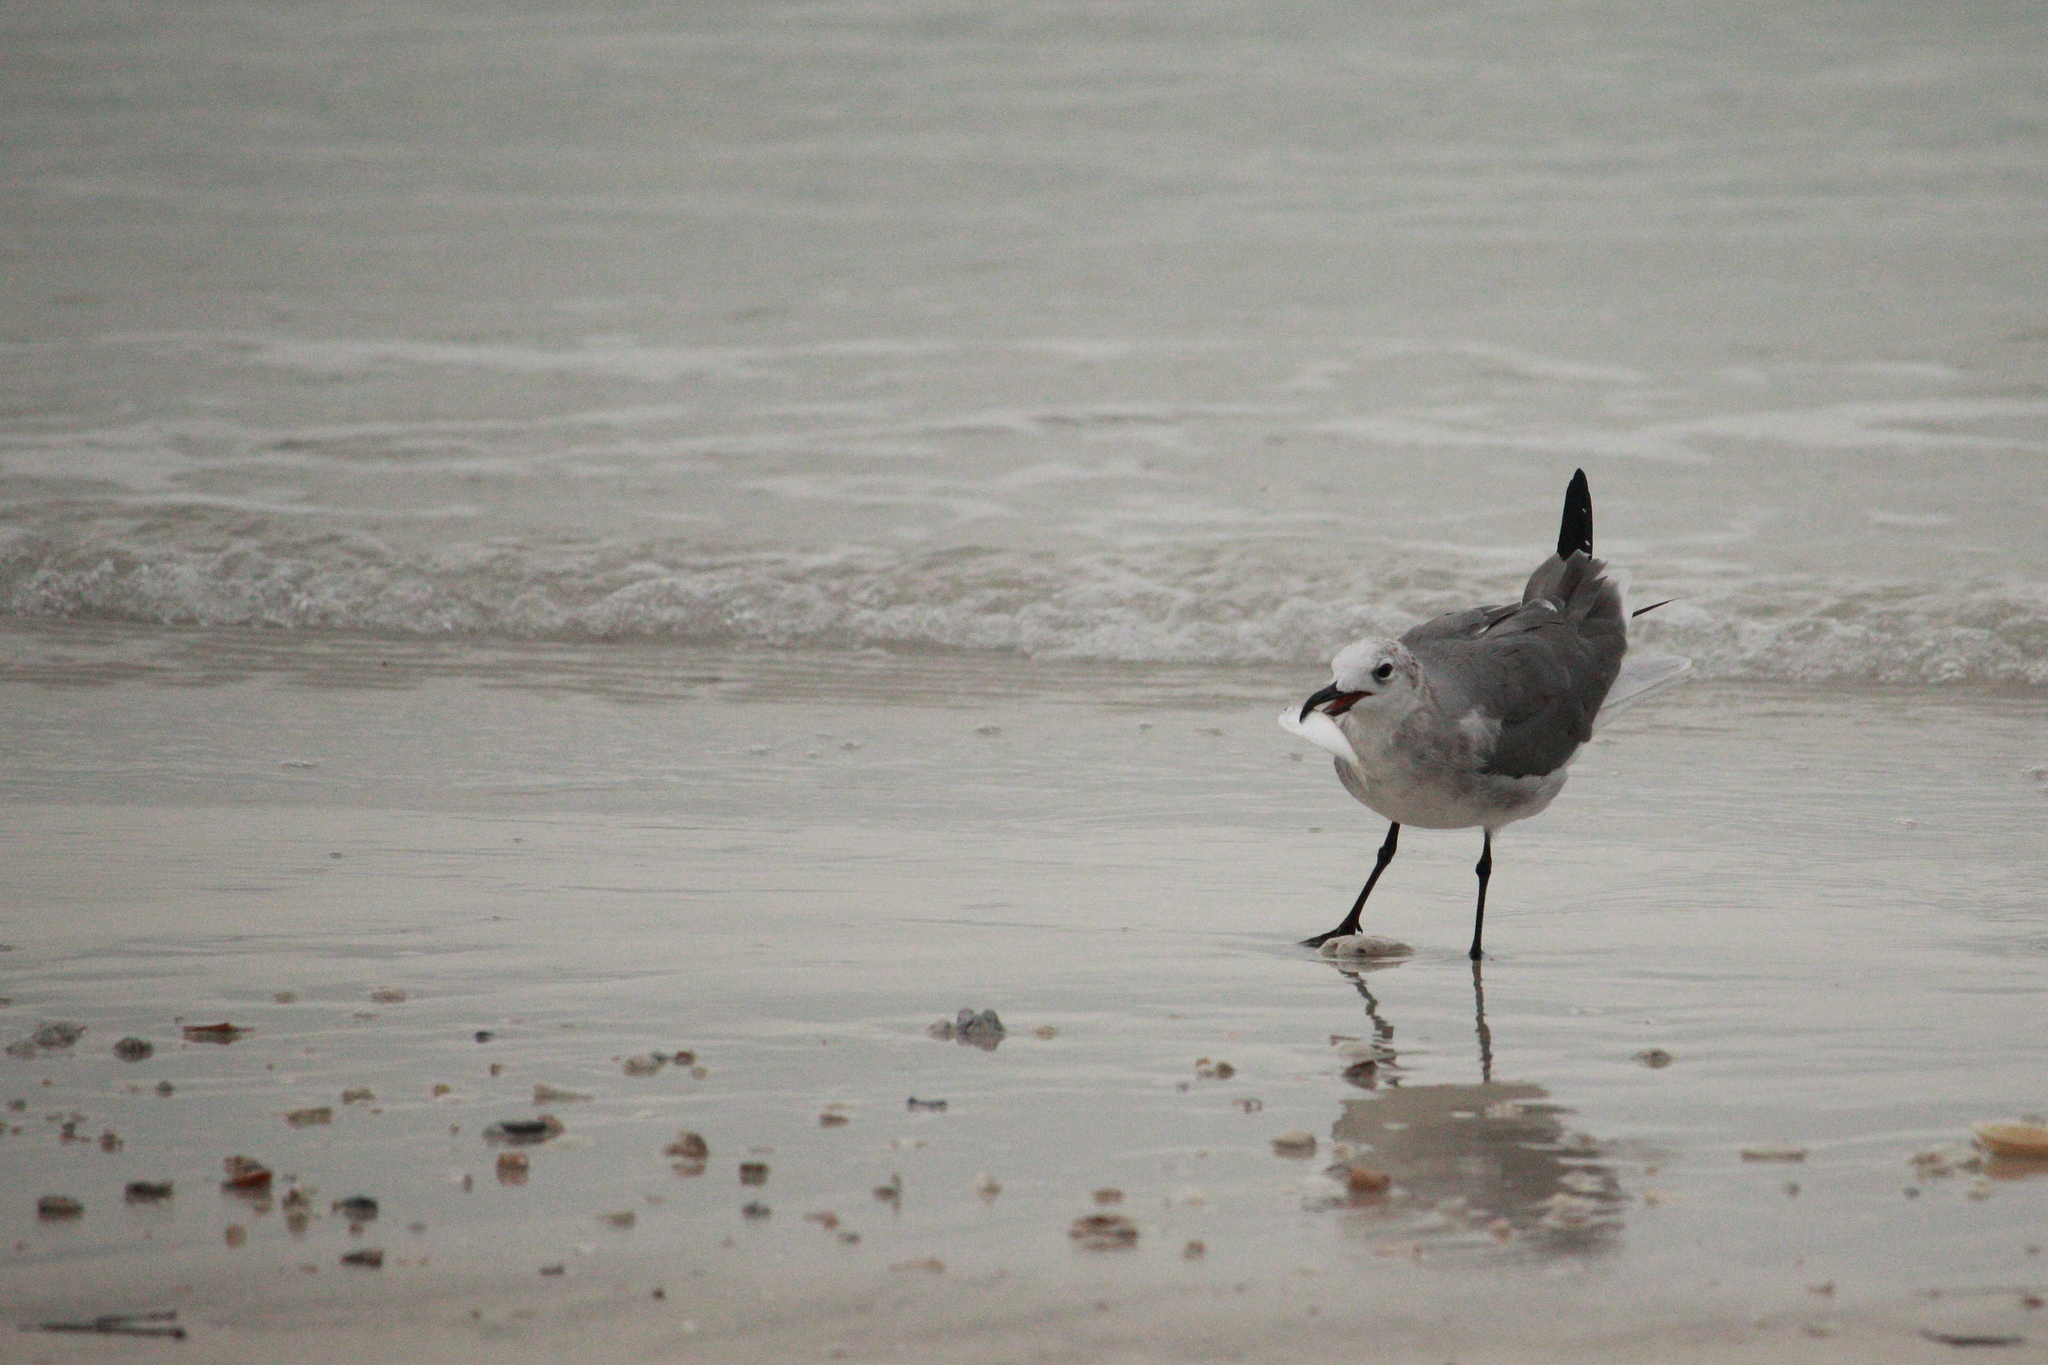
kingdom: Animalia
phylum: Chordata
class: Aves
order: Charadriiformes
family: Laridae
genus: Leucophaeus
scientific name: Leucophaeus atricilla
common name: Laughing gull
